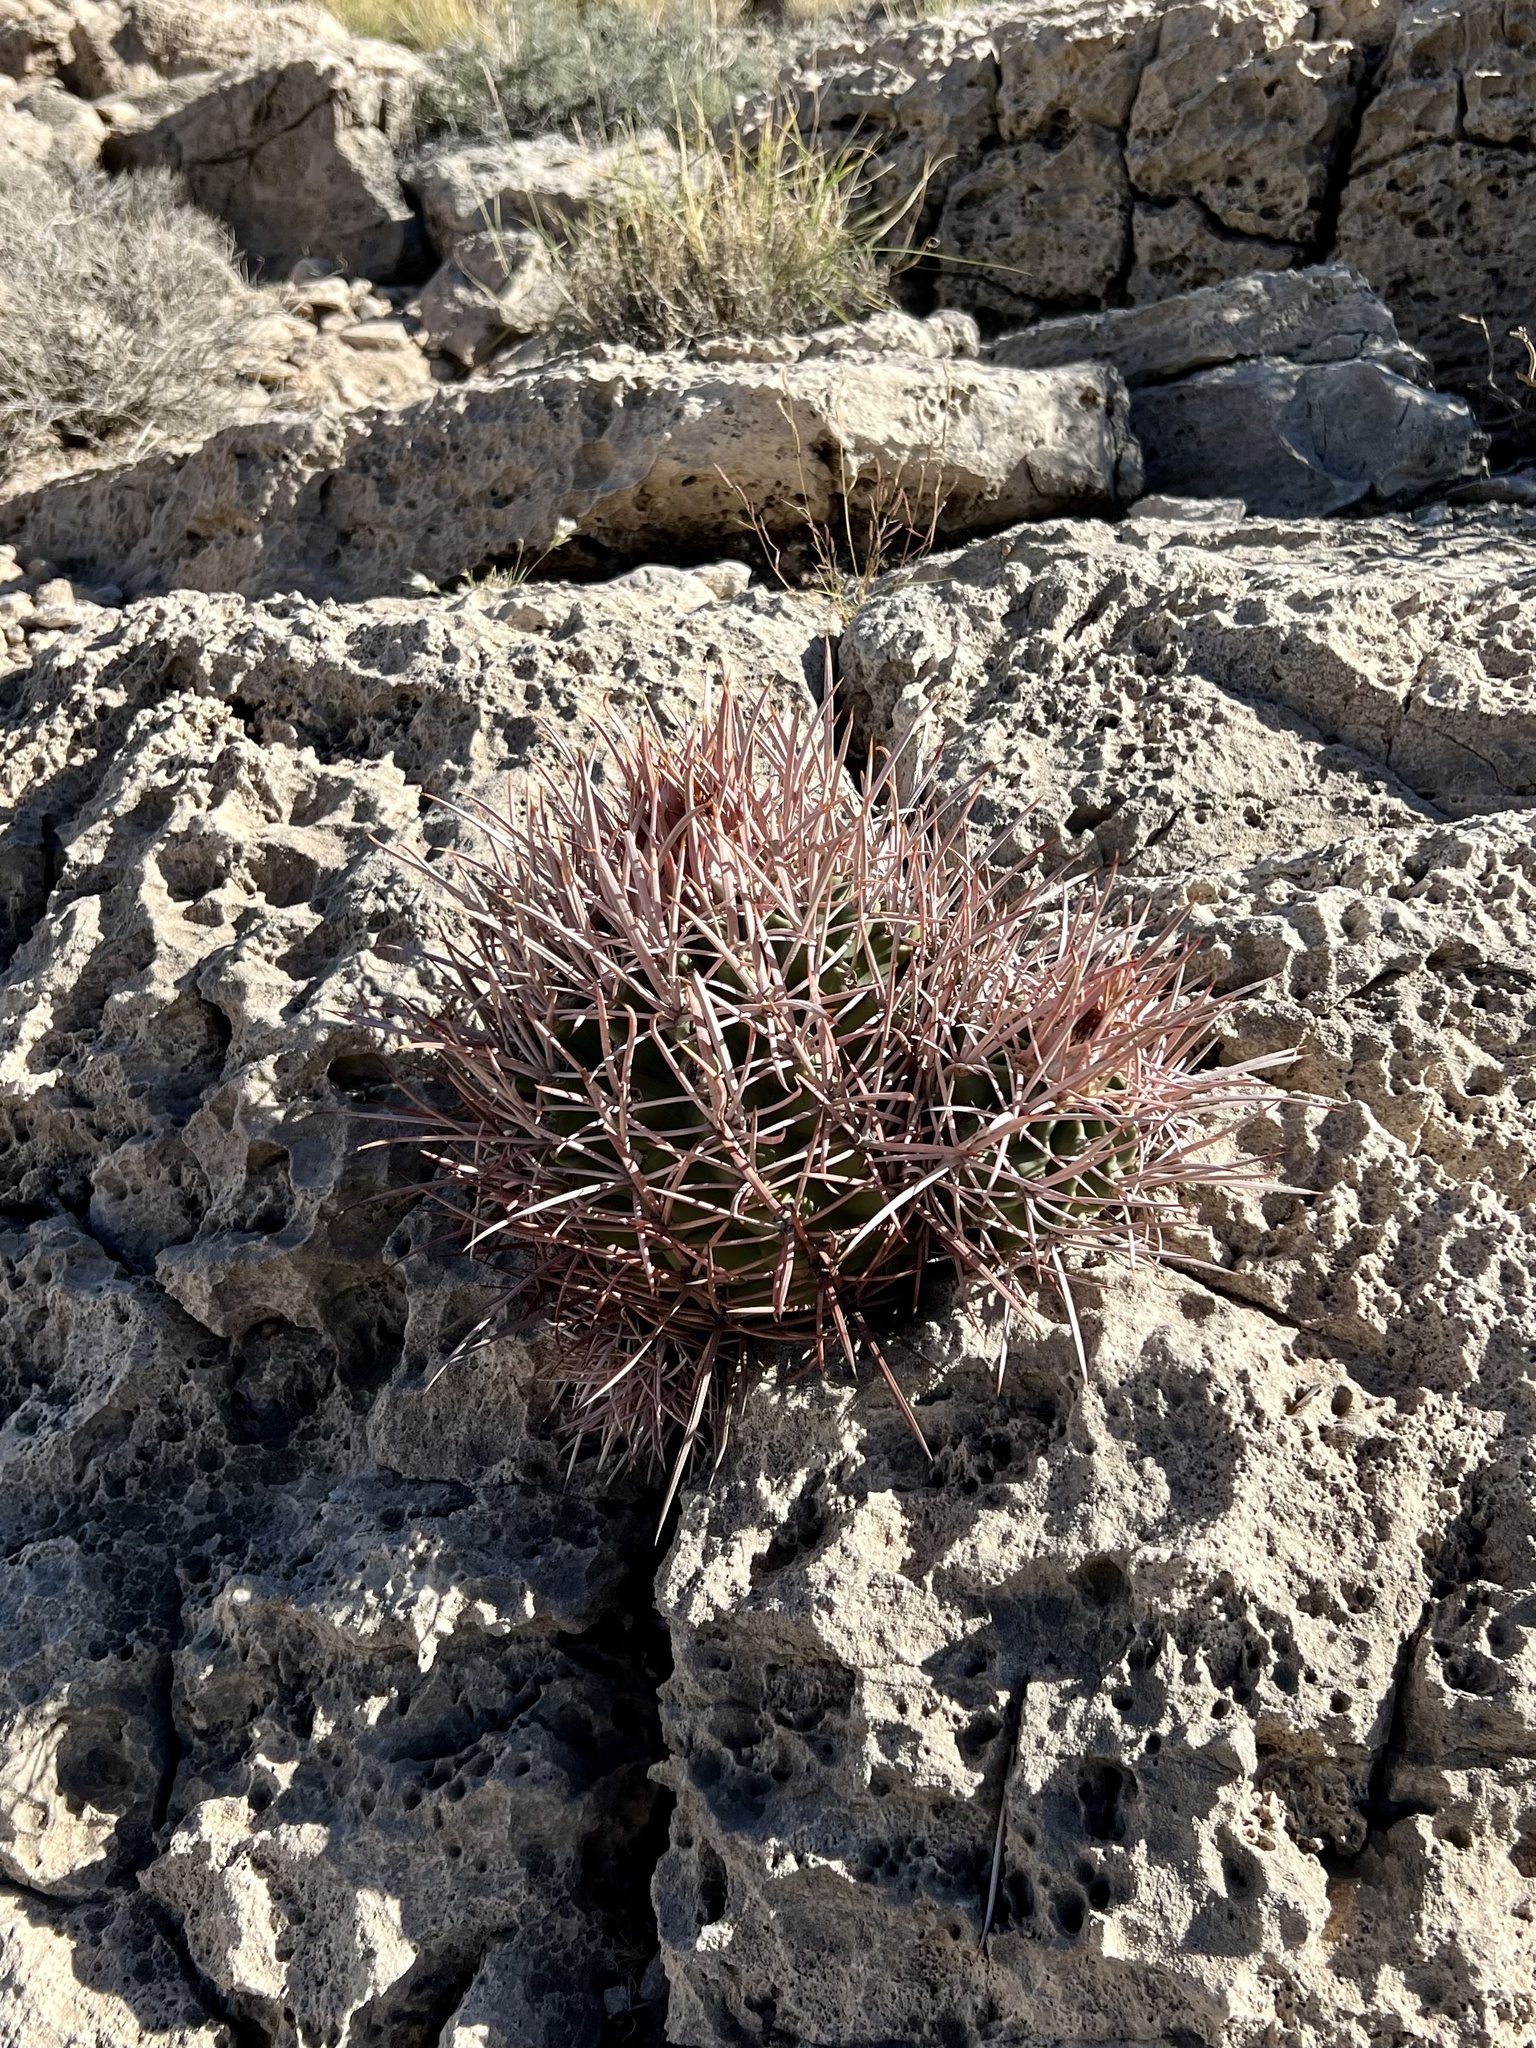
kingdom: Plantae
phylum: Tracheophyta
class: Magnoliopsida
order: Caryophyllales
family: Cactaceae
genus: Echinocactus
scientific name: Echinocactus polycephalus
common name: Cottontop cactus
